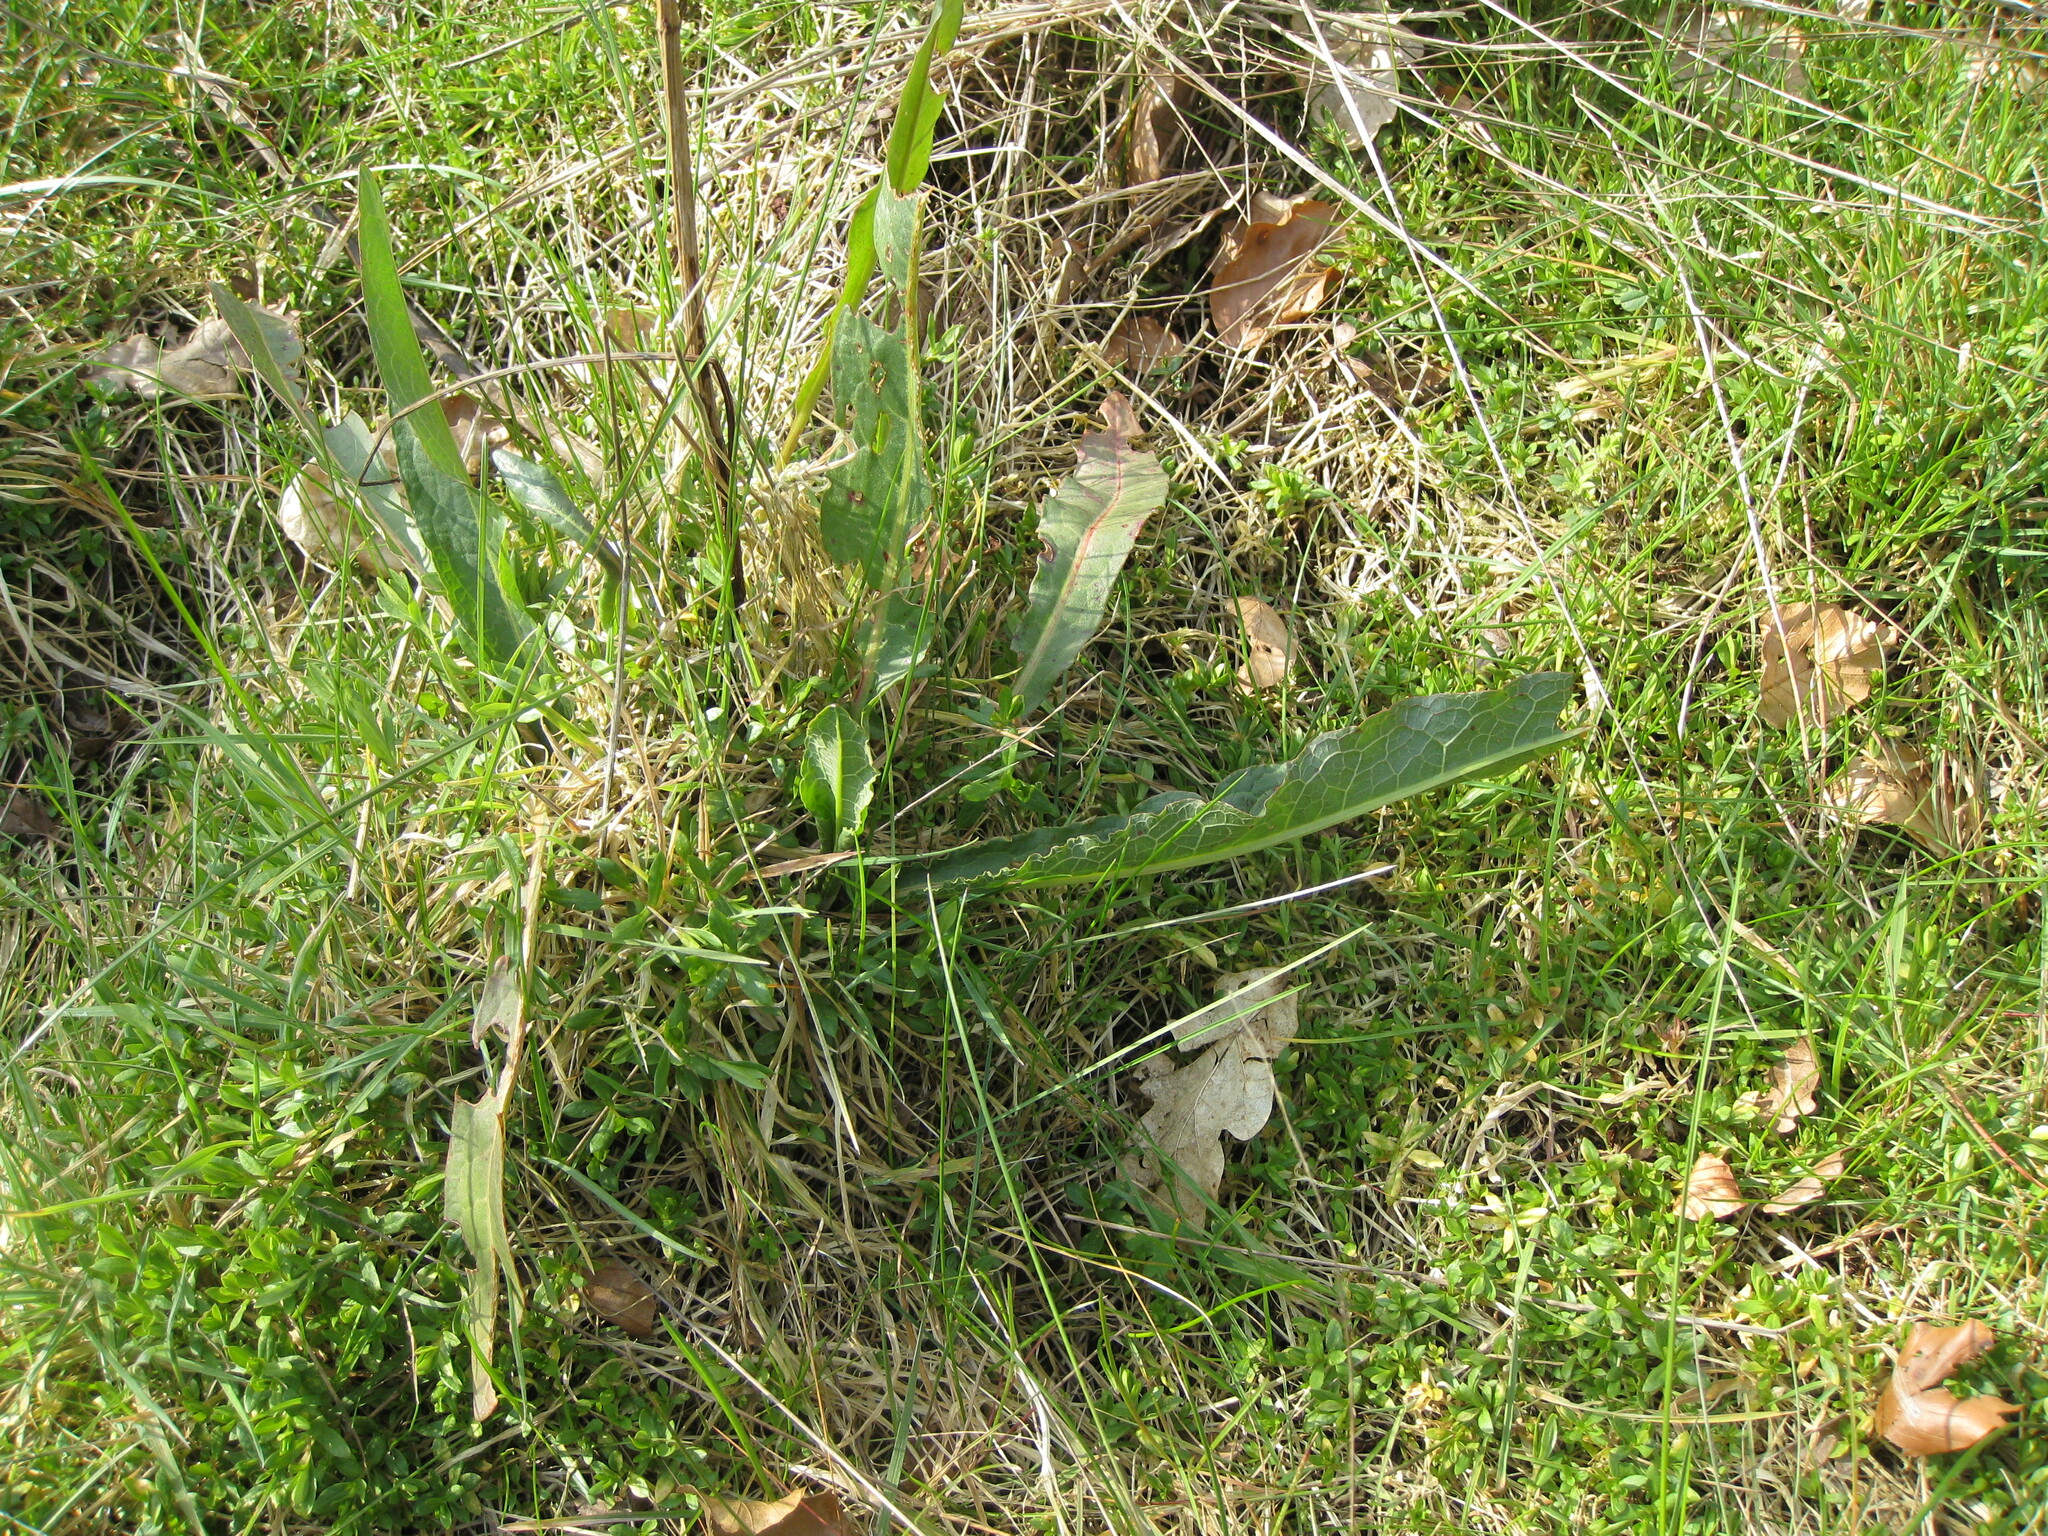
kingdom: Plantae
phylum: Tracheophyta
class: Magnoliopsida
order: Caryophyllales
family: Polygonaceae
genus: Rumex
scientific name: Rumex crispus
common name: Curled dock
